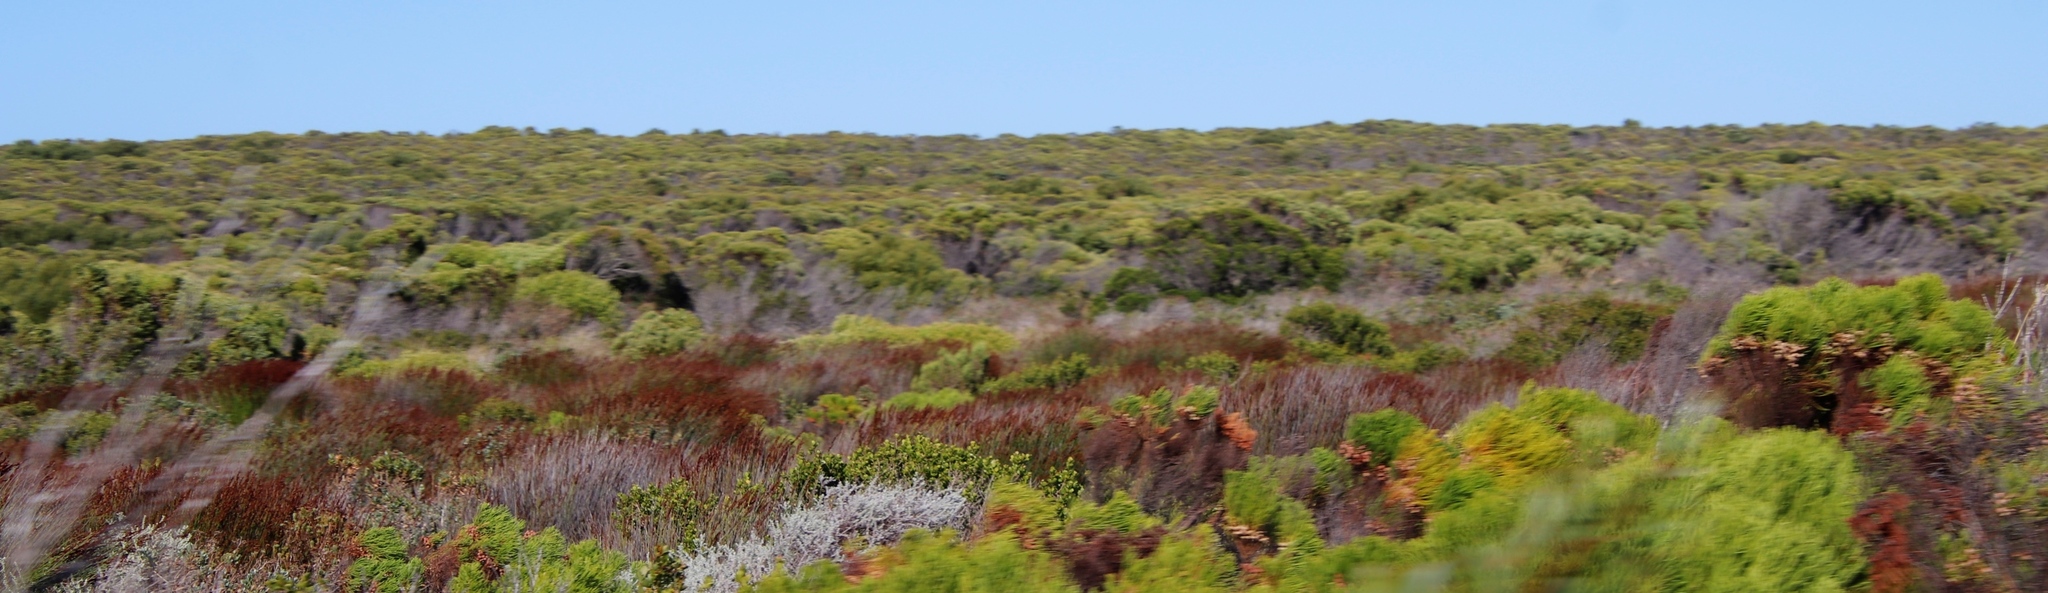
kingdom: Plantae
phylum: Tracheophyta
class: Liliopsida
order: Poales
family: Restionaceae
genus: Elegia
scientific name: Elegia tectorum
